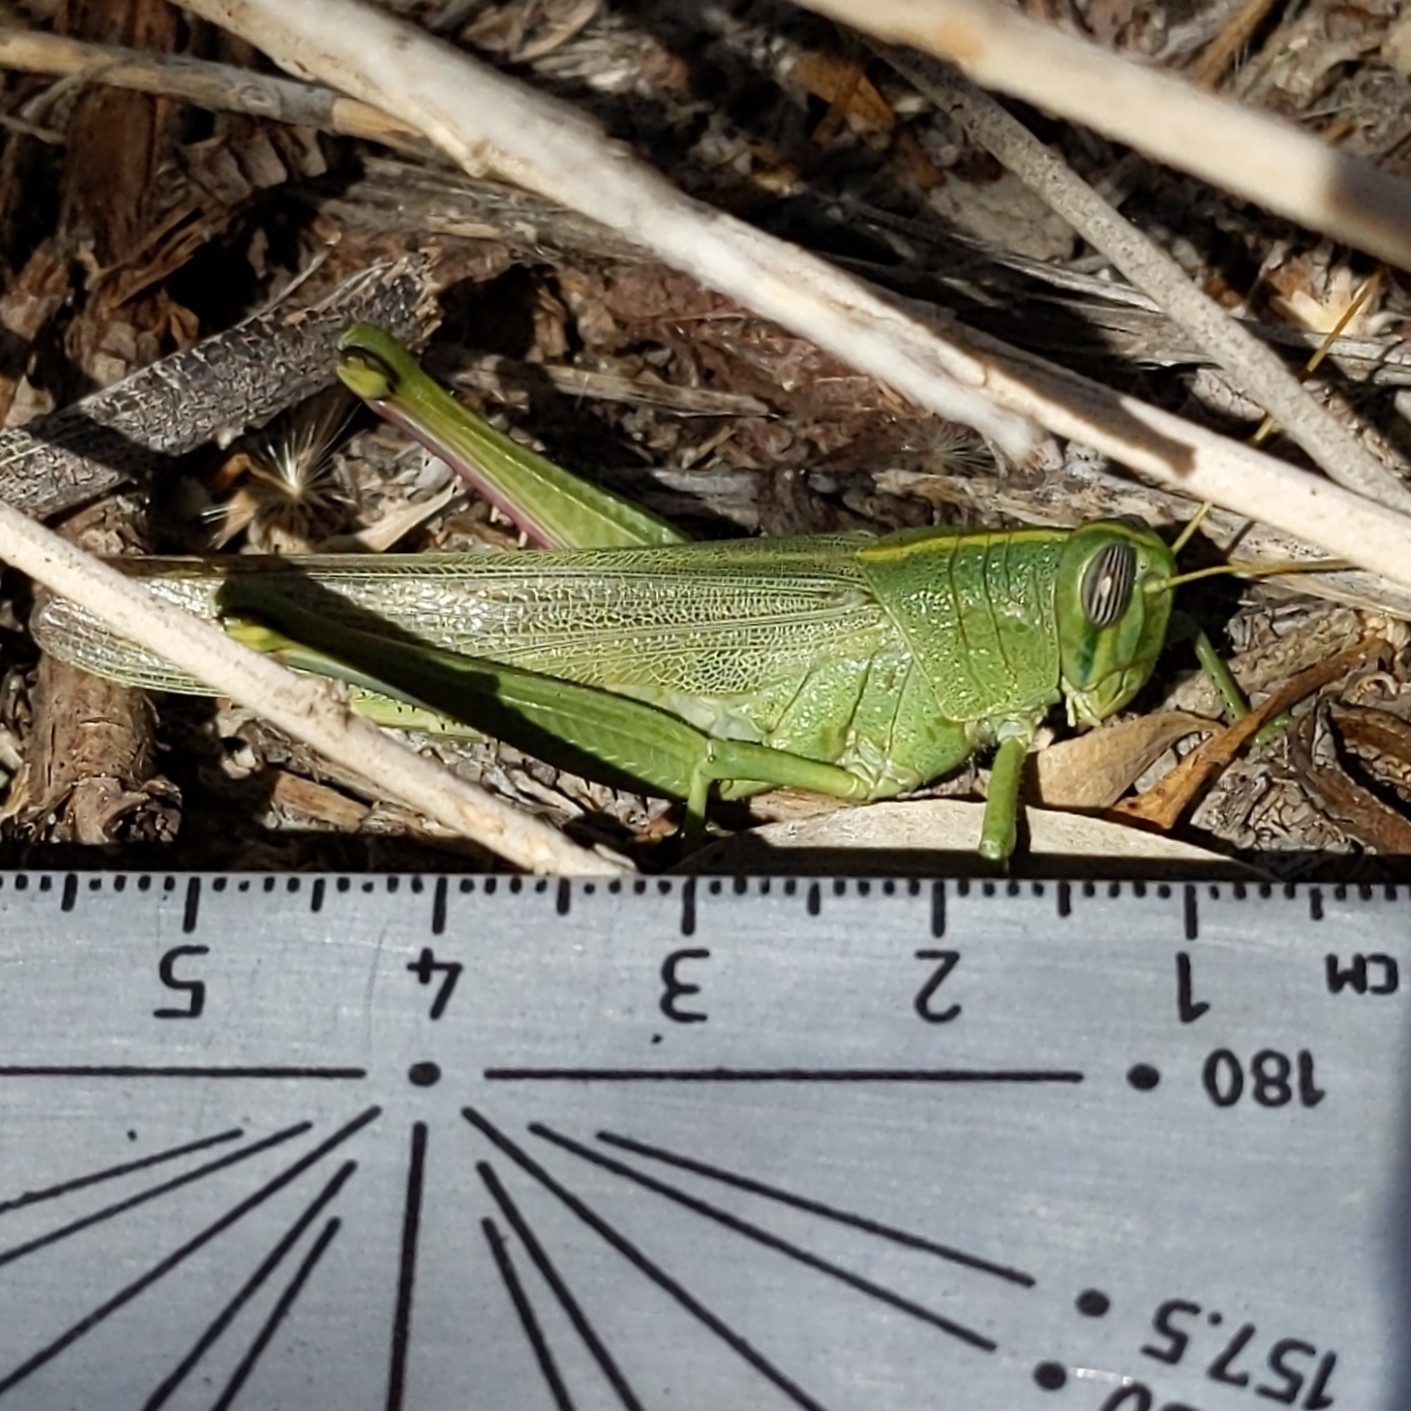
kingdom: Animalia
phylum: Arthropoda
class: Insecta
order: Orthoptera
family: Acrididae
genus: Schistocerca
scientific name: Schistocerca shoshone
